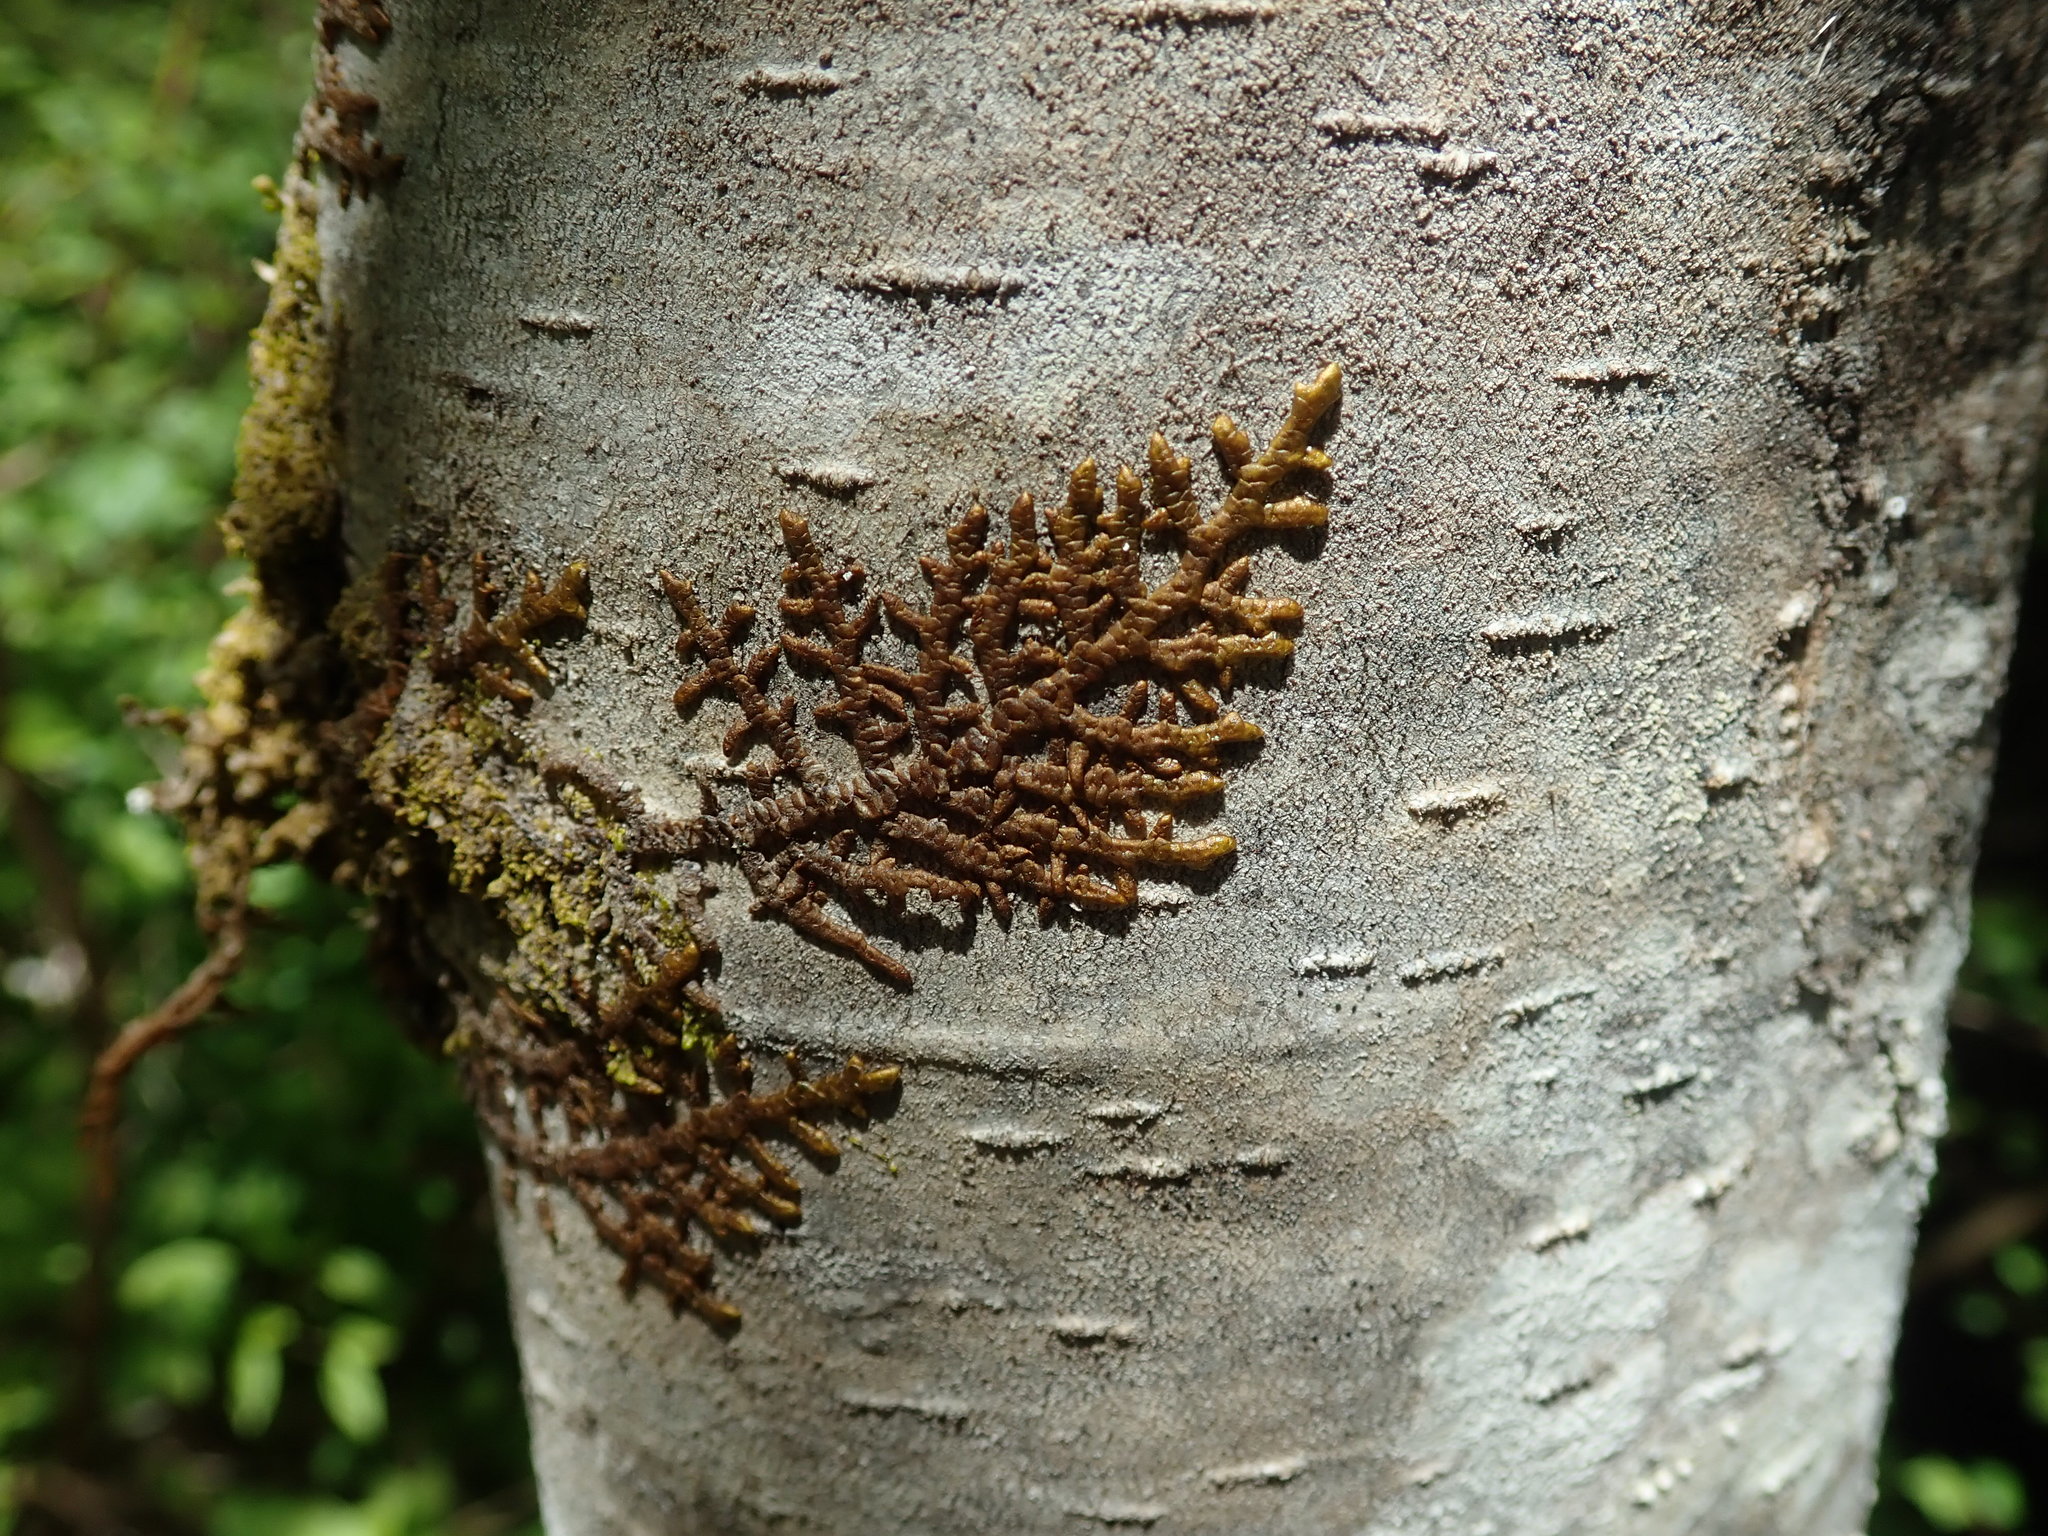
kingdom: Plantae
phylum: Marchantiophyta
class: Jungermanniopsida
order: Porellales
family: Porellaceae
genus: Porella
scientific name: Porella navicularis
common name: Tree ruffle liverwort
